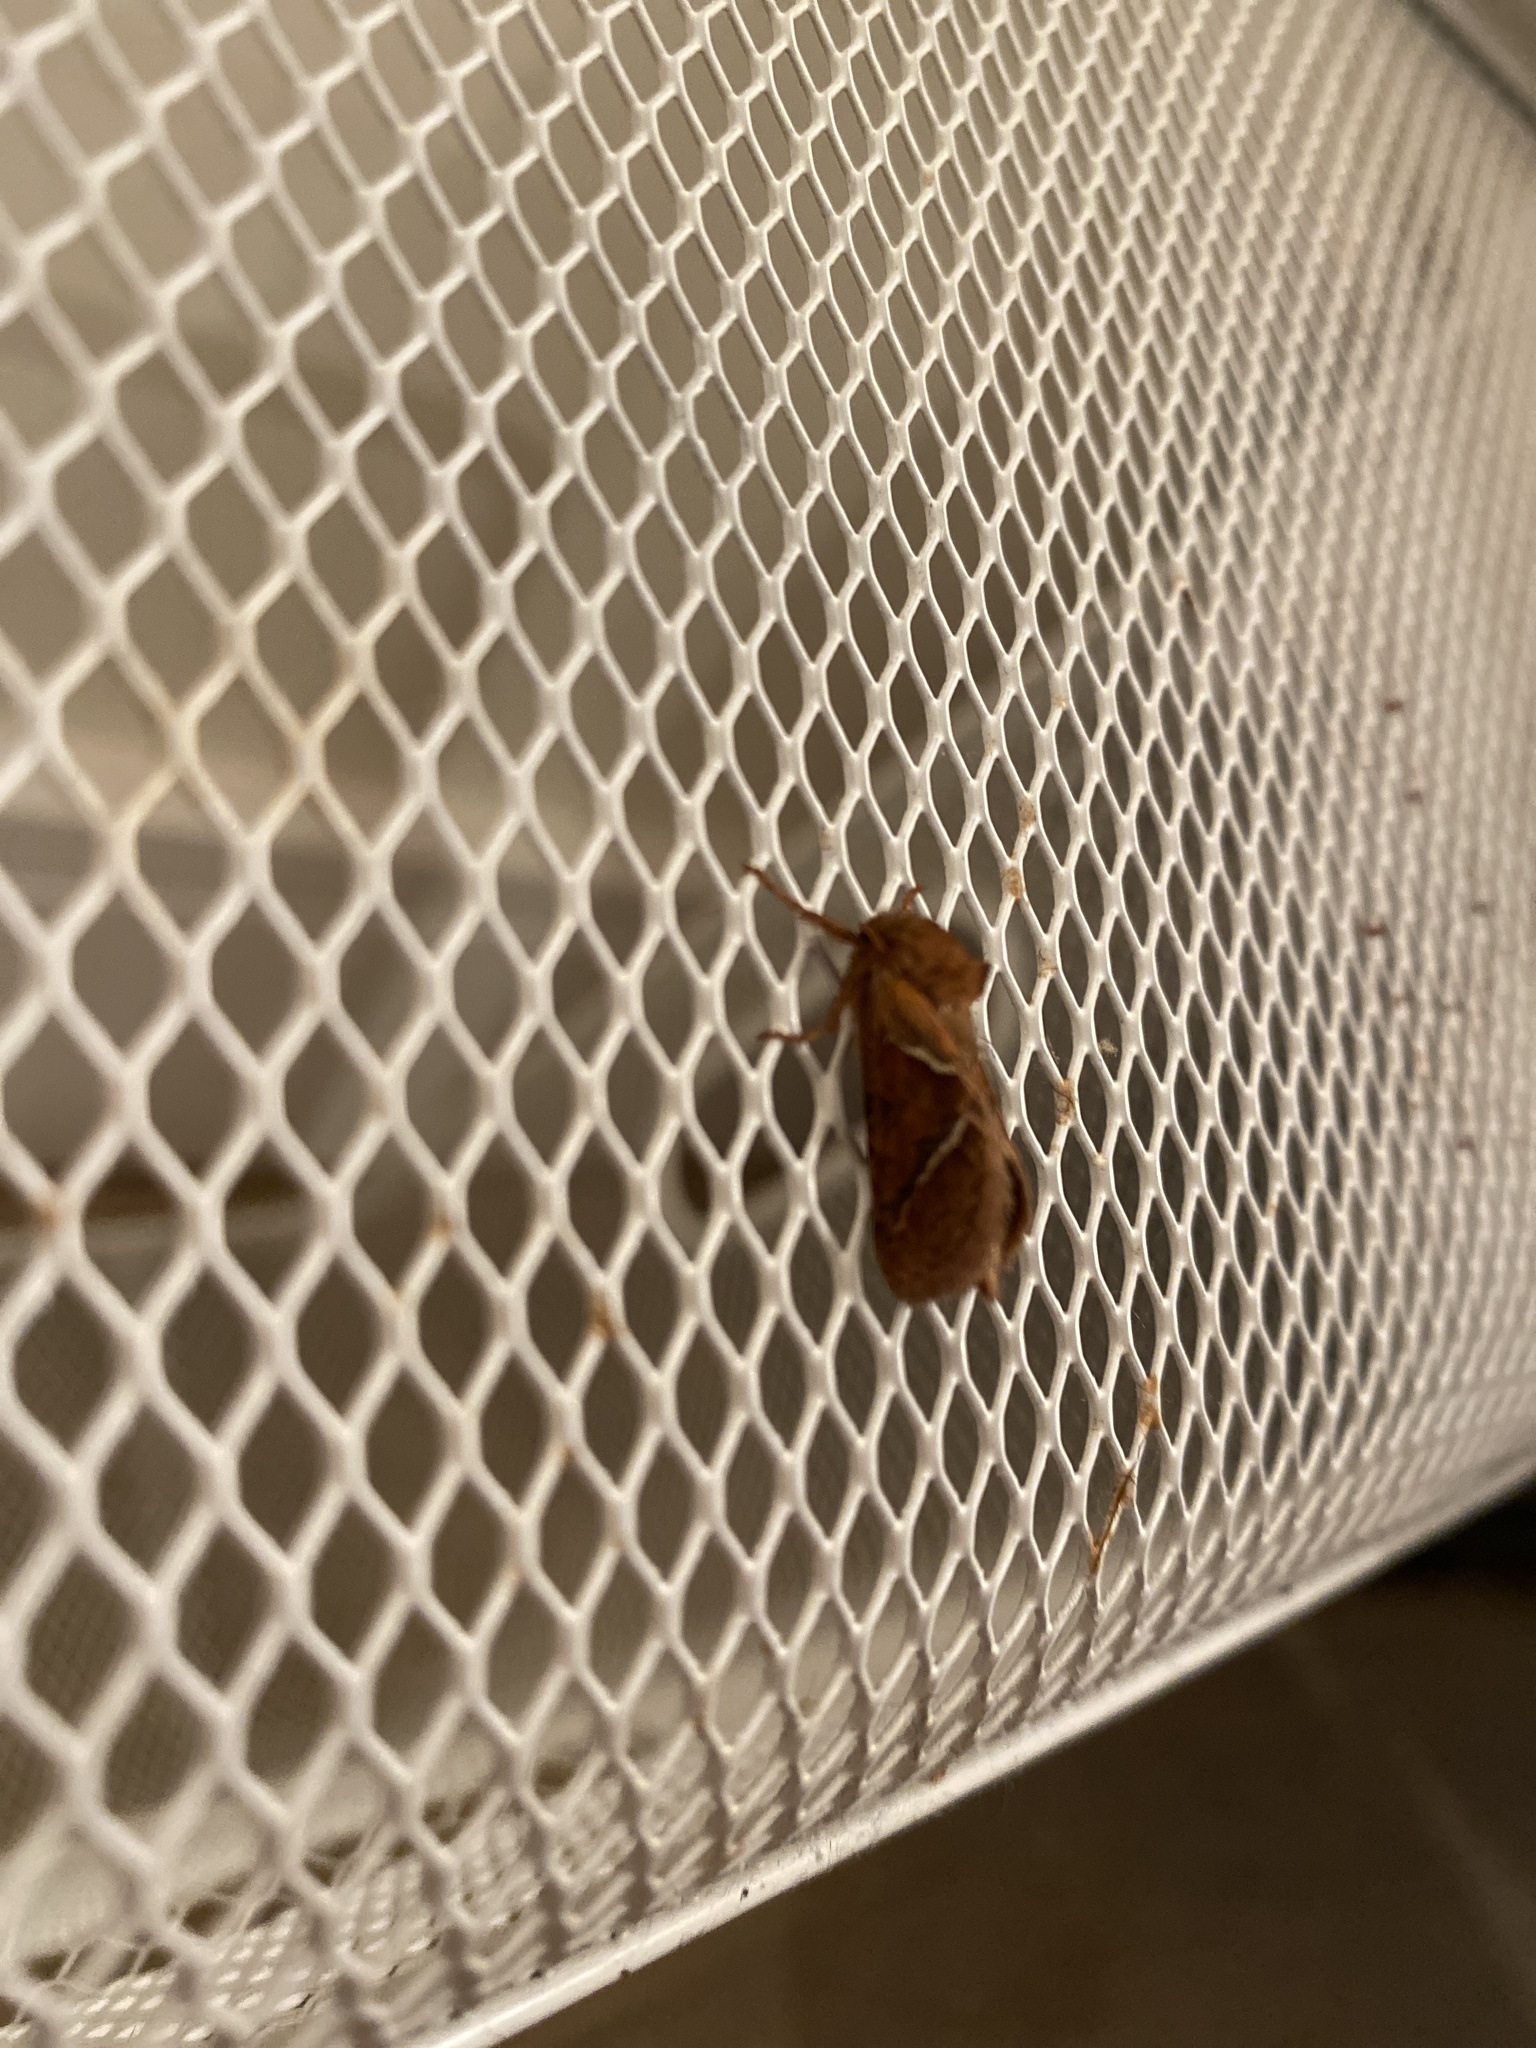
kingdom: Animalia
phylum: Arthropoda
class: Insecta
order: Lepidoptera
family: Hepialidae
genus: Triodia
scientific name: Triodia sylvina
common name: Orange swift
